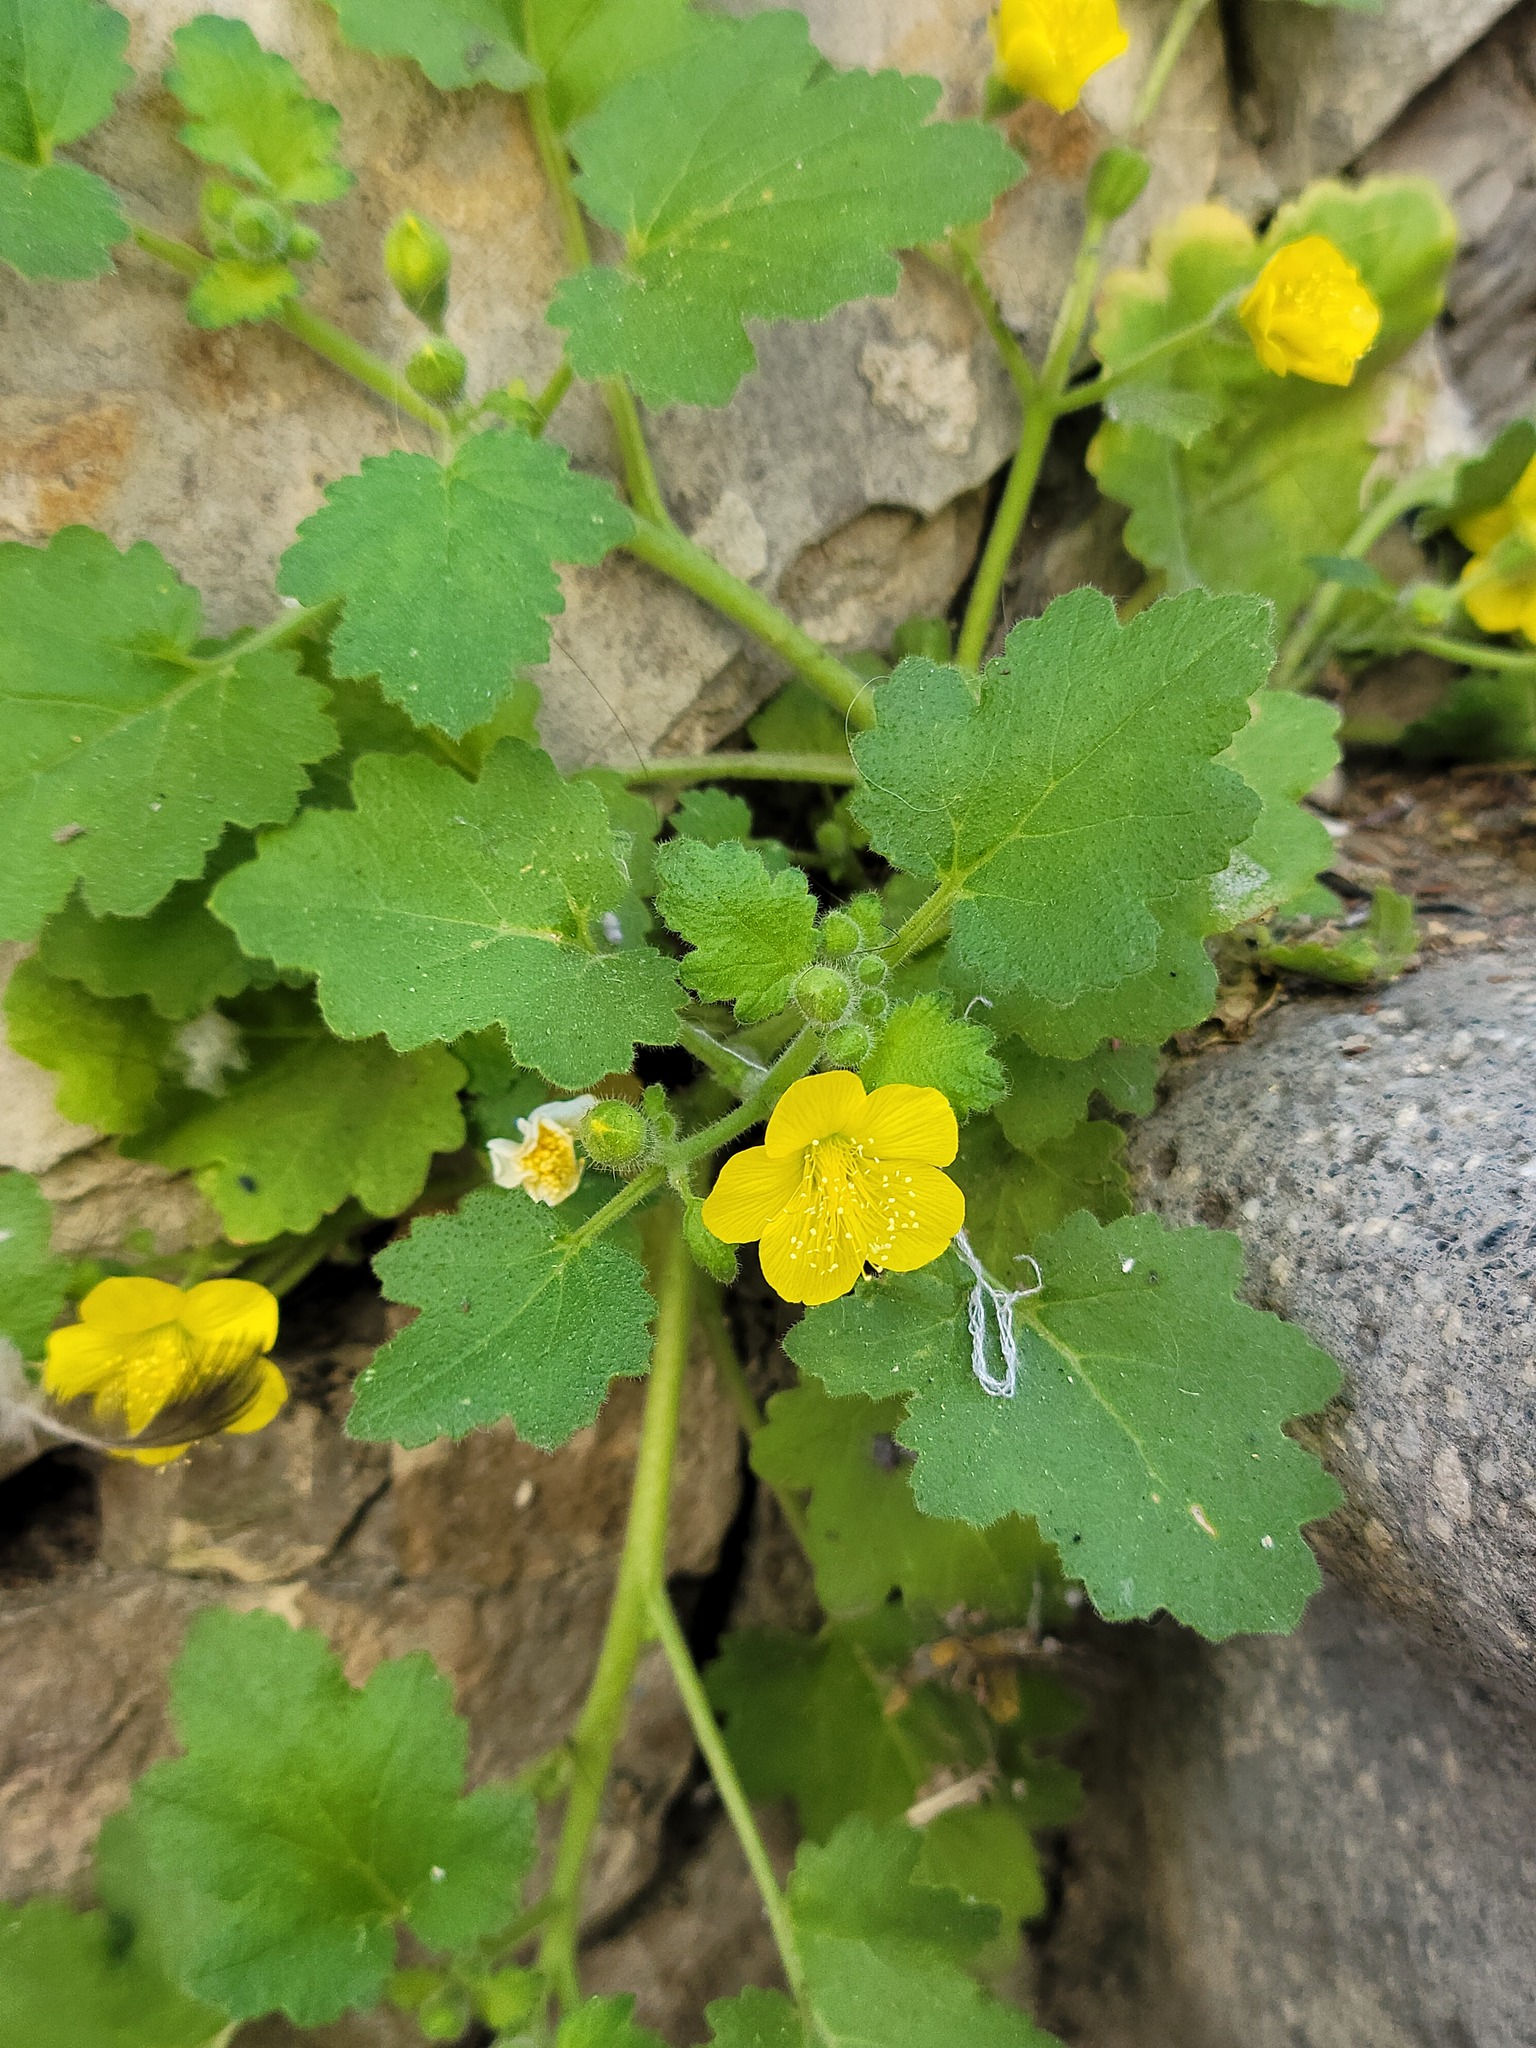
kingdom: Plantae
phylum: Tracheophyta
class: Magnoliopsida
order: Cornales
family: Loasaceae
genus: Eucnide
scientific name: Eucnide lobata
